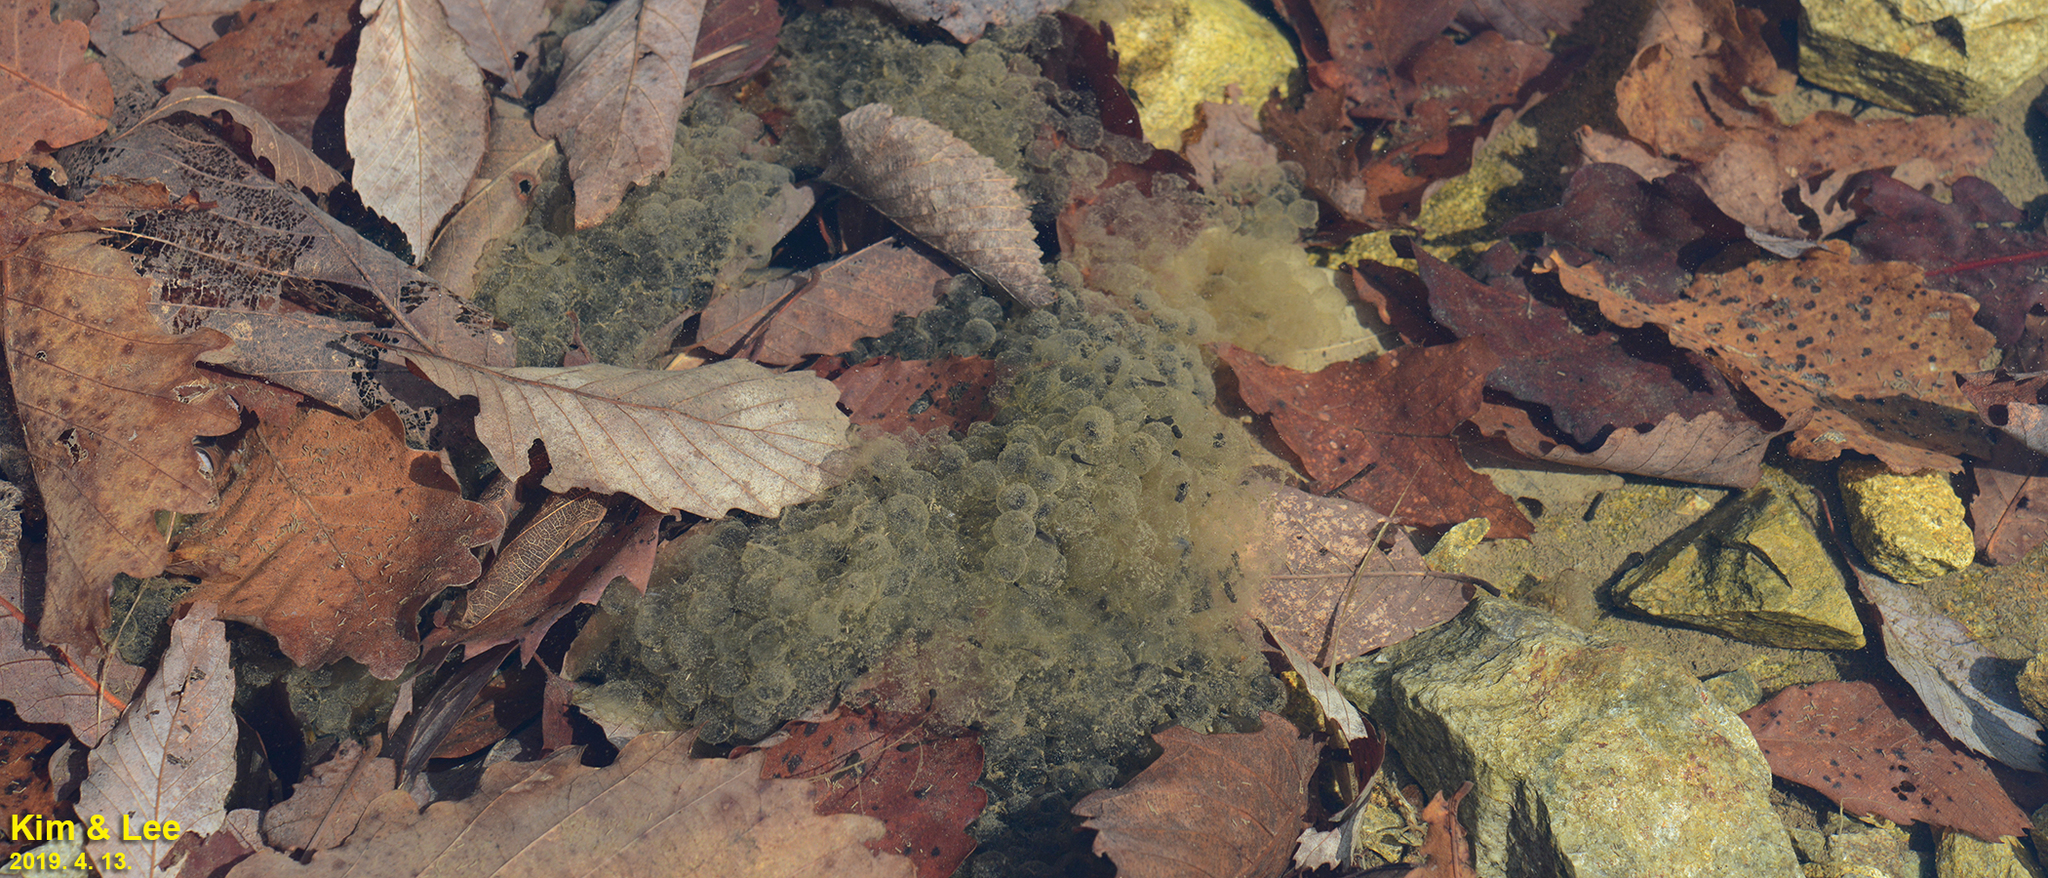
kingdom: Animalia
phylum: Chordata
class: Amphibia
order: Anura
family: Ranidae
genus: Rana
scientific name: Rana huanrenensis
